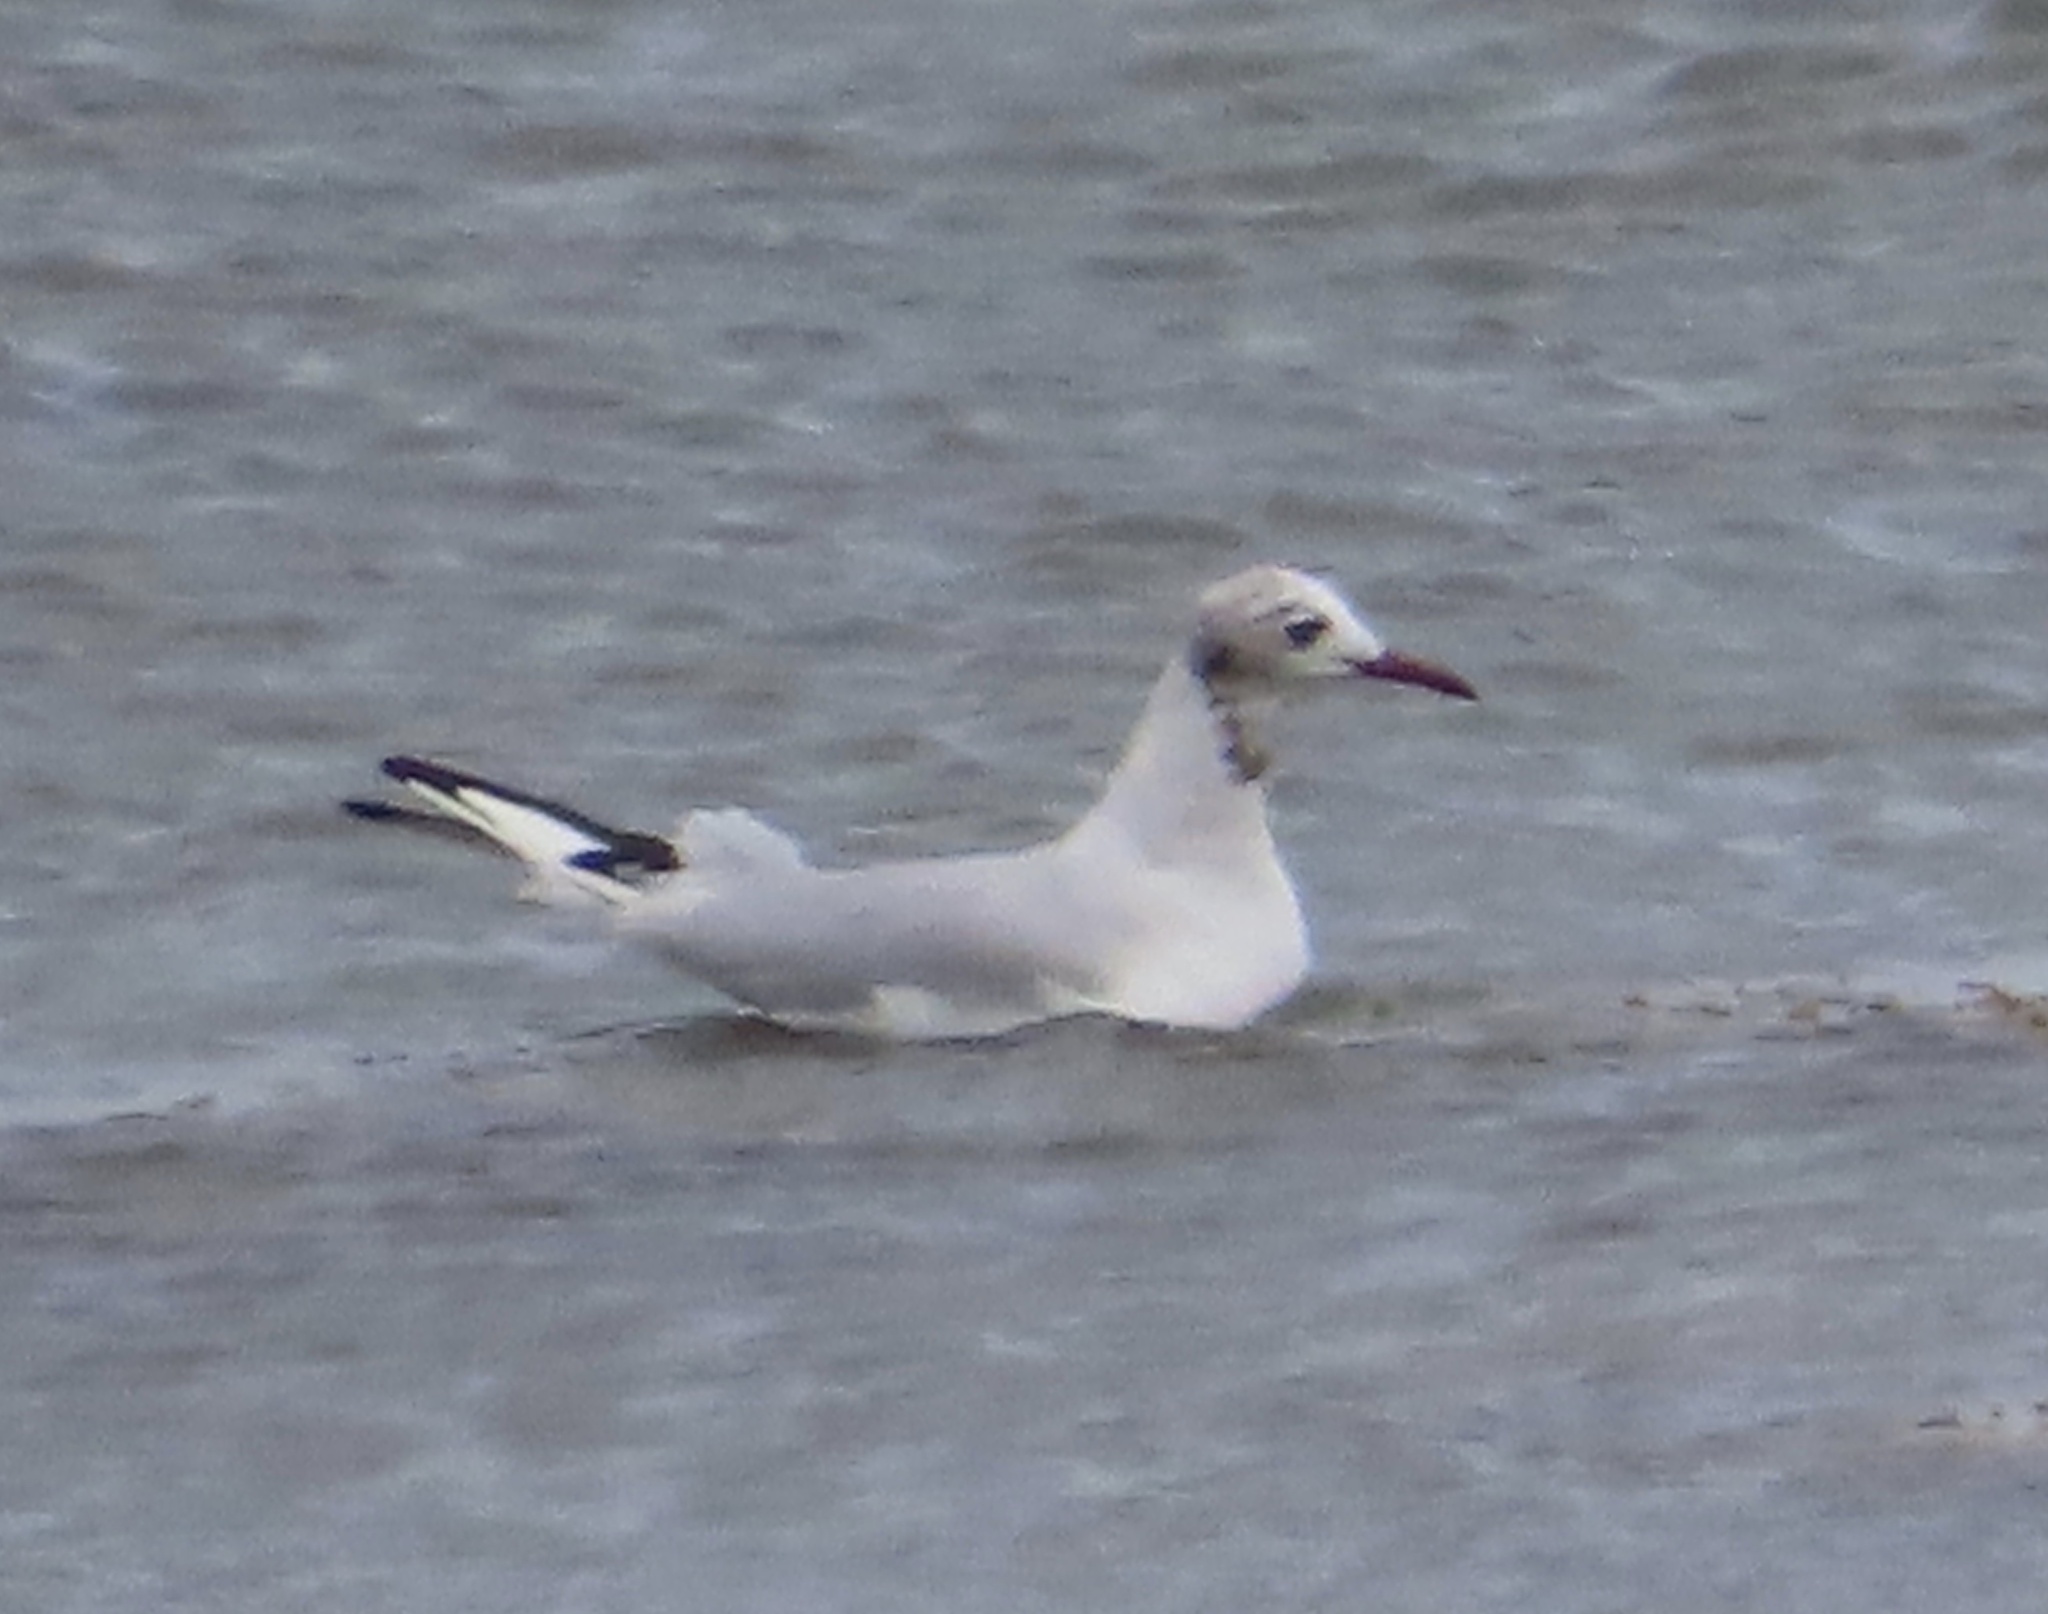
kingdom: Animalia
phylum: Chordata
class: Aves
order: Charadriiformes
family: Laridae
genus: Chroicocephalus
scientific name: Chroicocephalus ridibundus
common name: Black-headed gull
